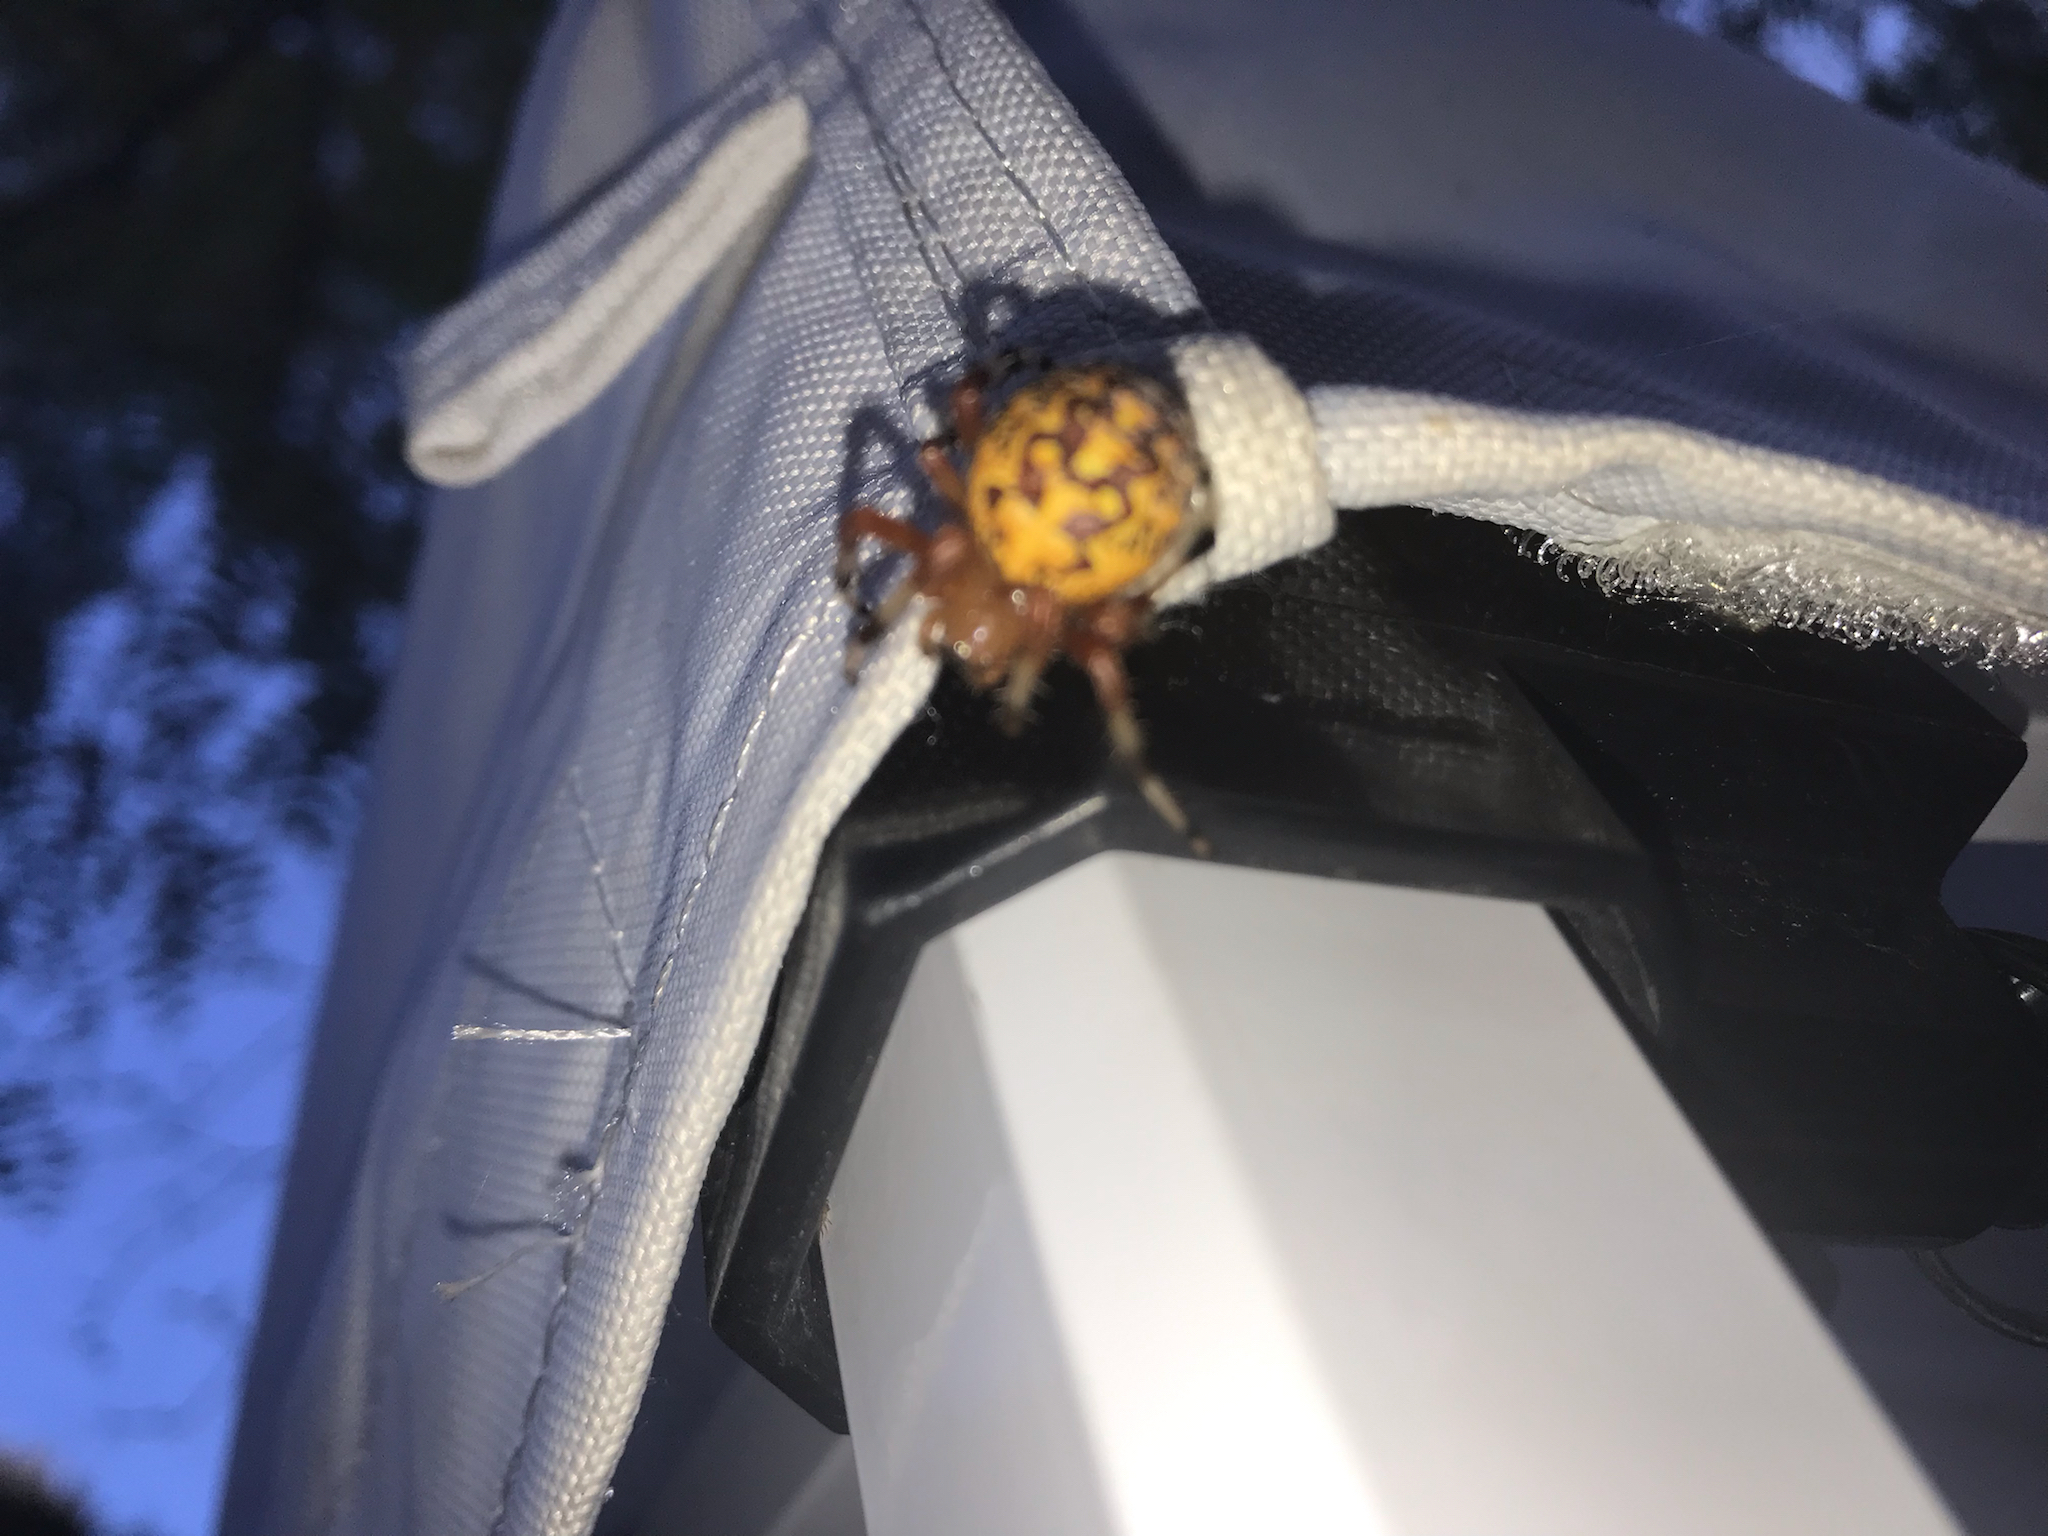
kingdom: Animalia
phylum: Arthropoda
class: Arachnida
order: Araneae
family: Araneidae
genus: Araneus
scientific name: Araneus marmoreus
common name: Marbled orbweaver
